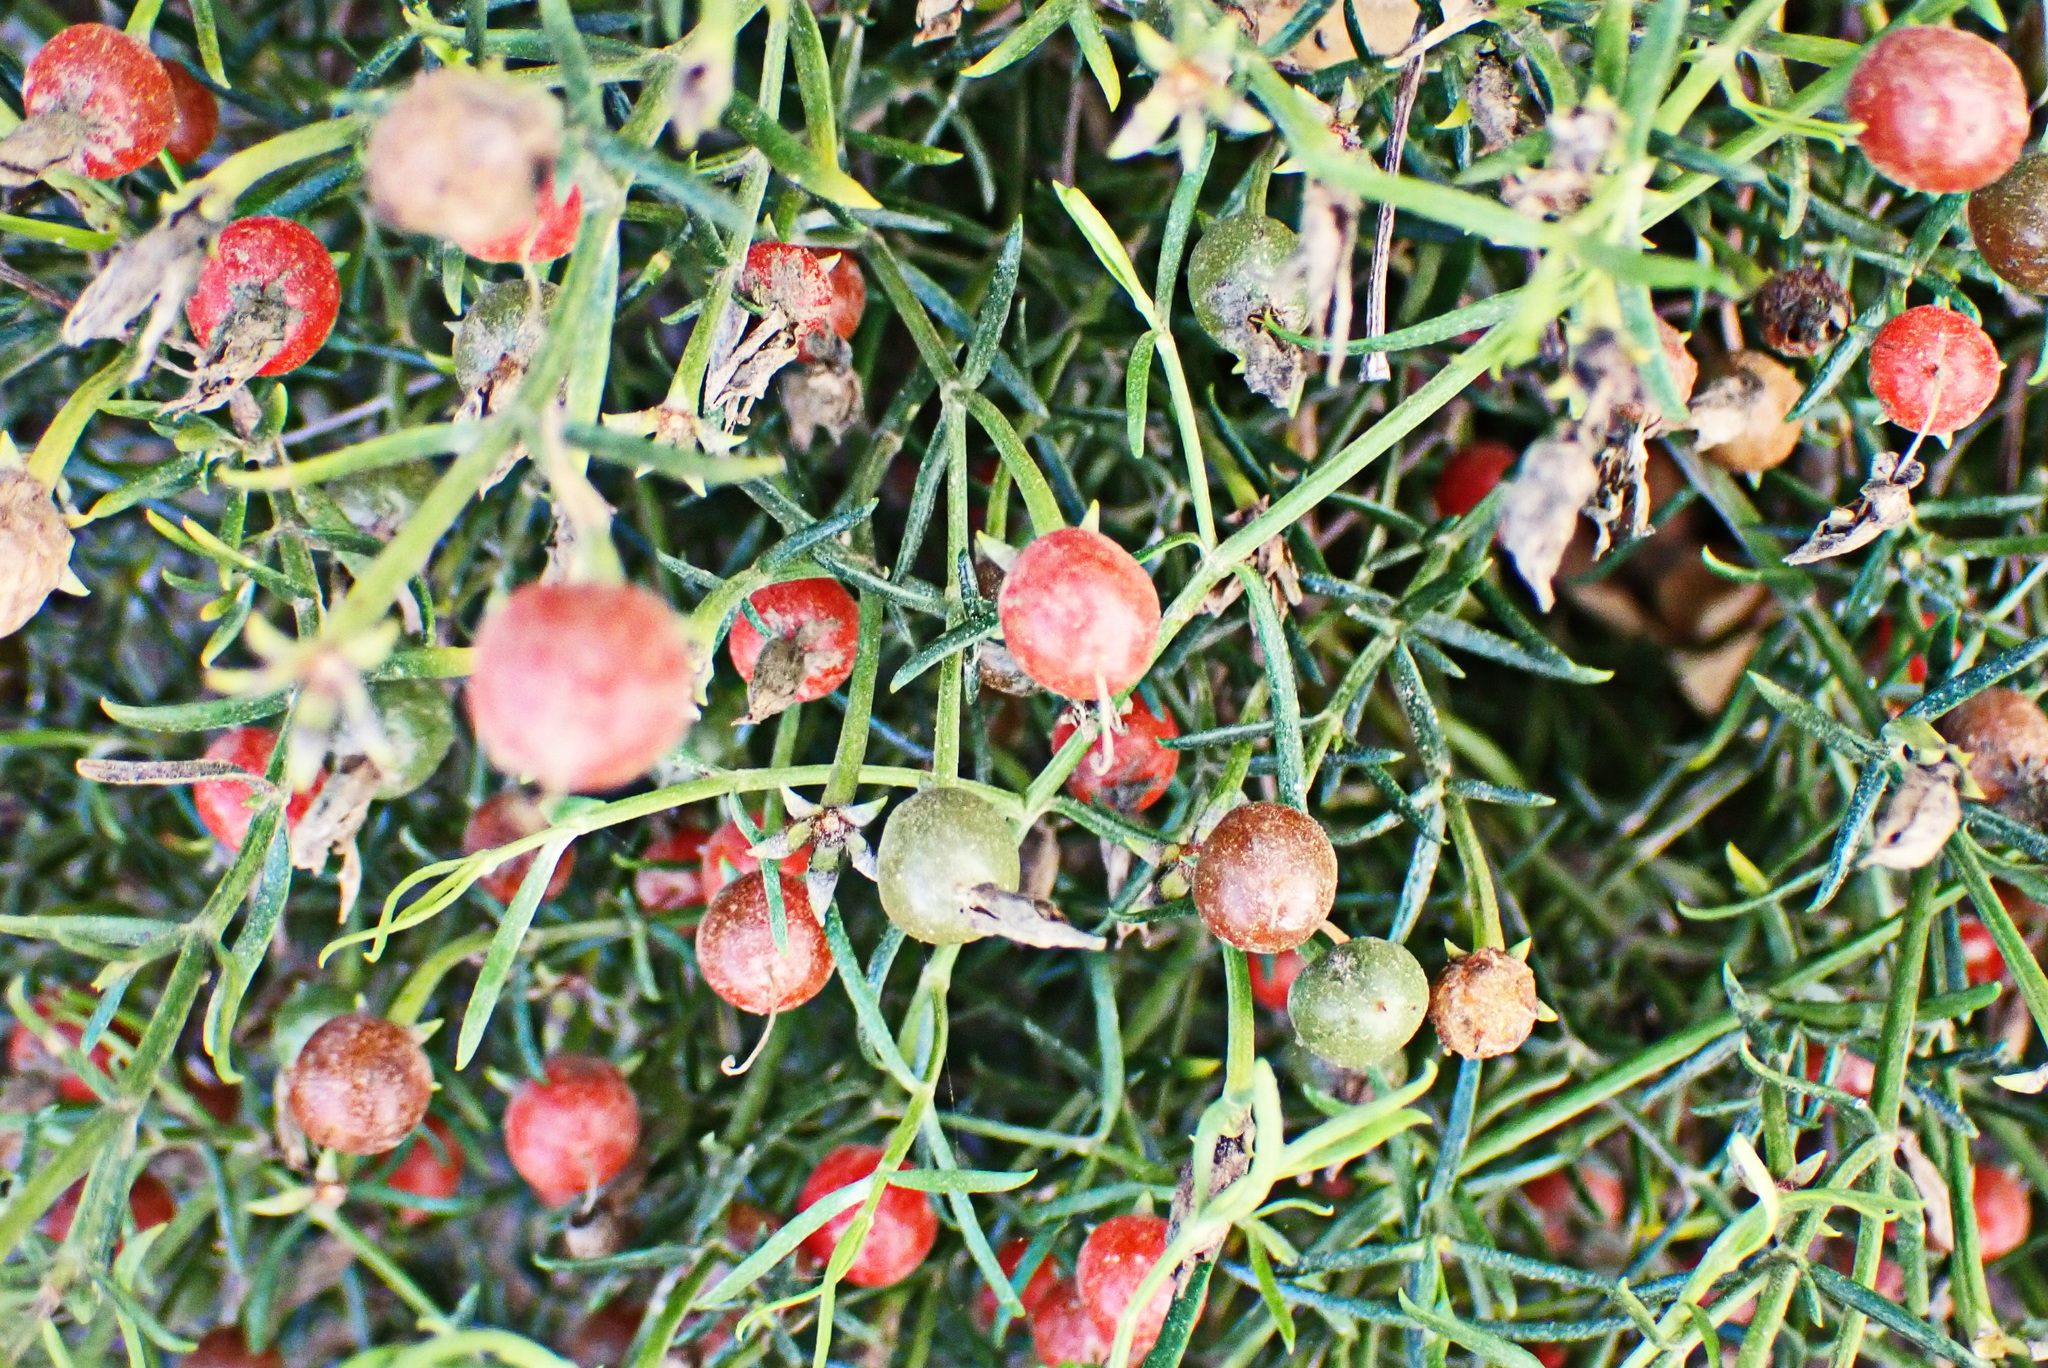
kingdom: Plantae
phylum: Tracheophyta
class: Magnoliopsida
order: Gentianales
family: Gentianaceae
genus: Chironia
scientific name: Chironia baccifera
